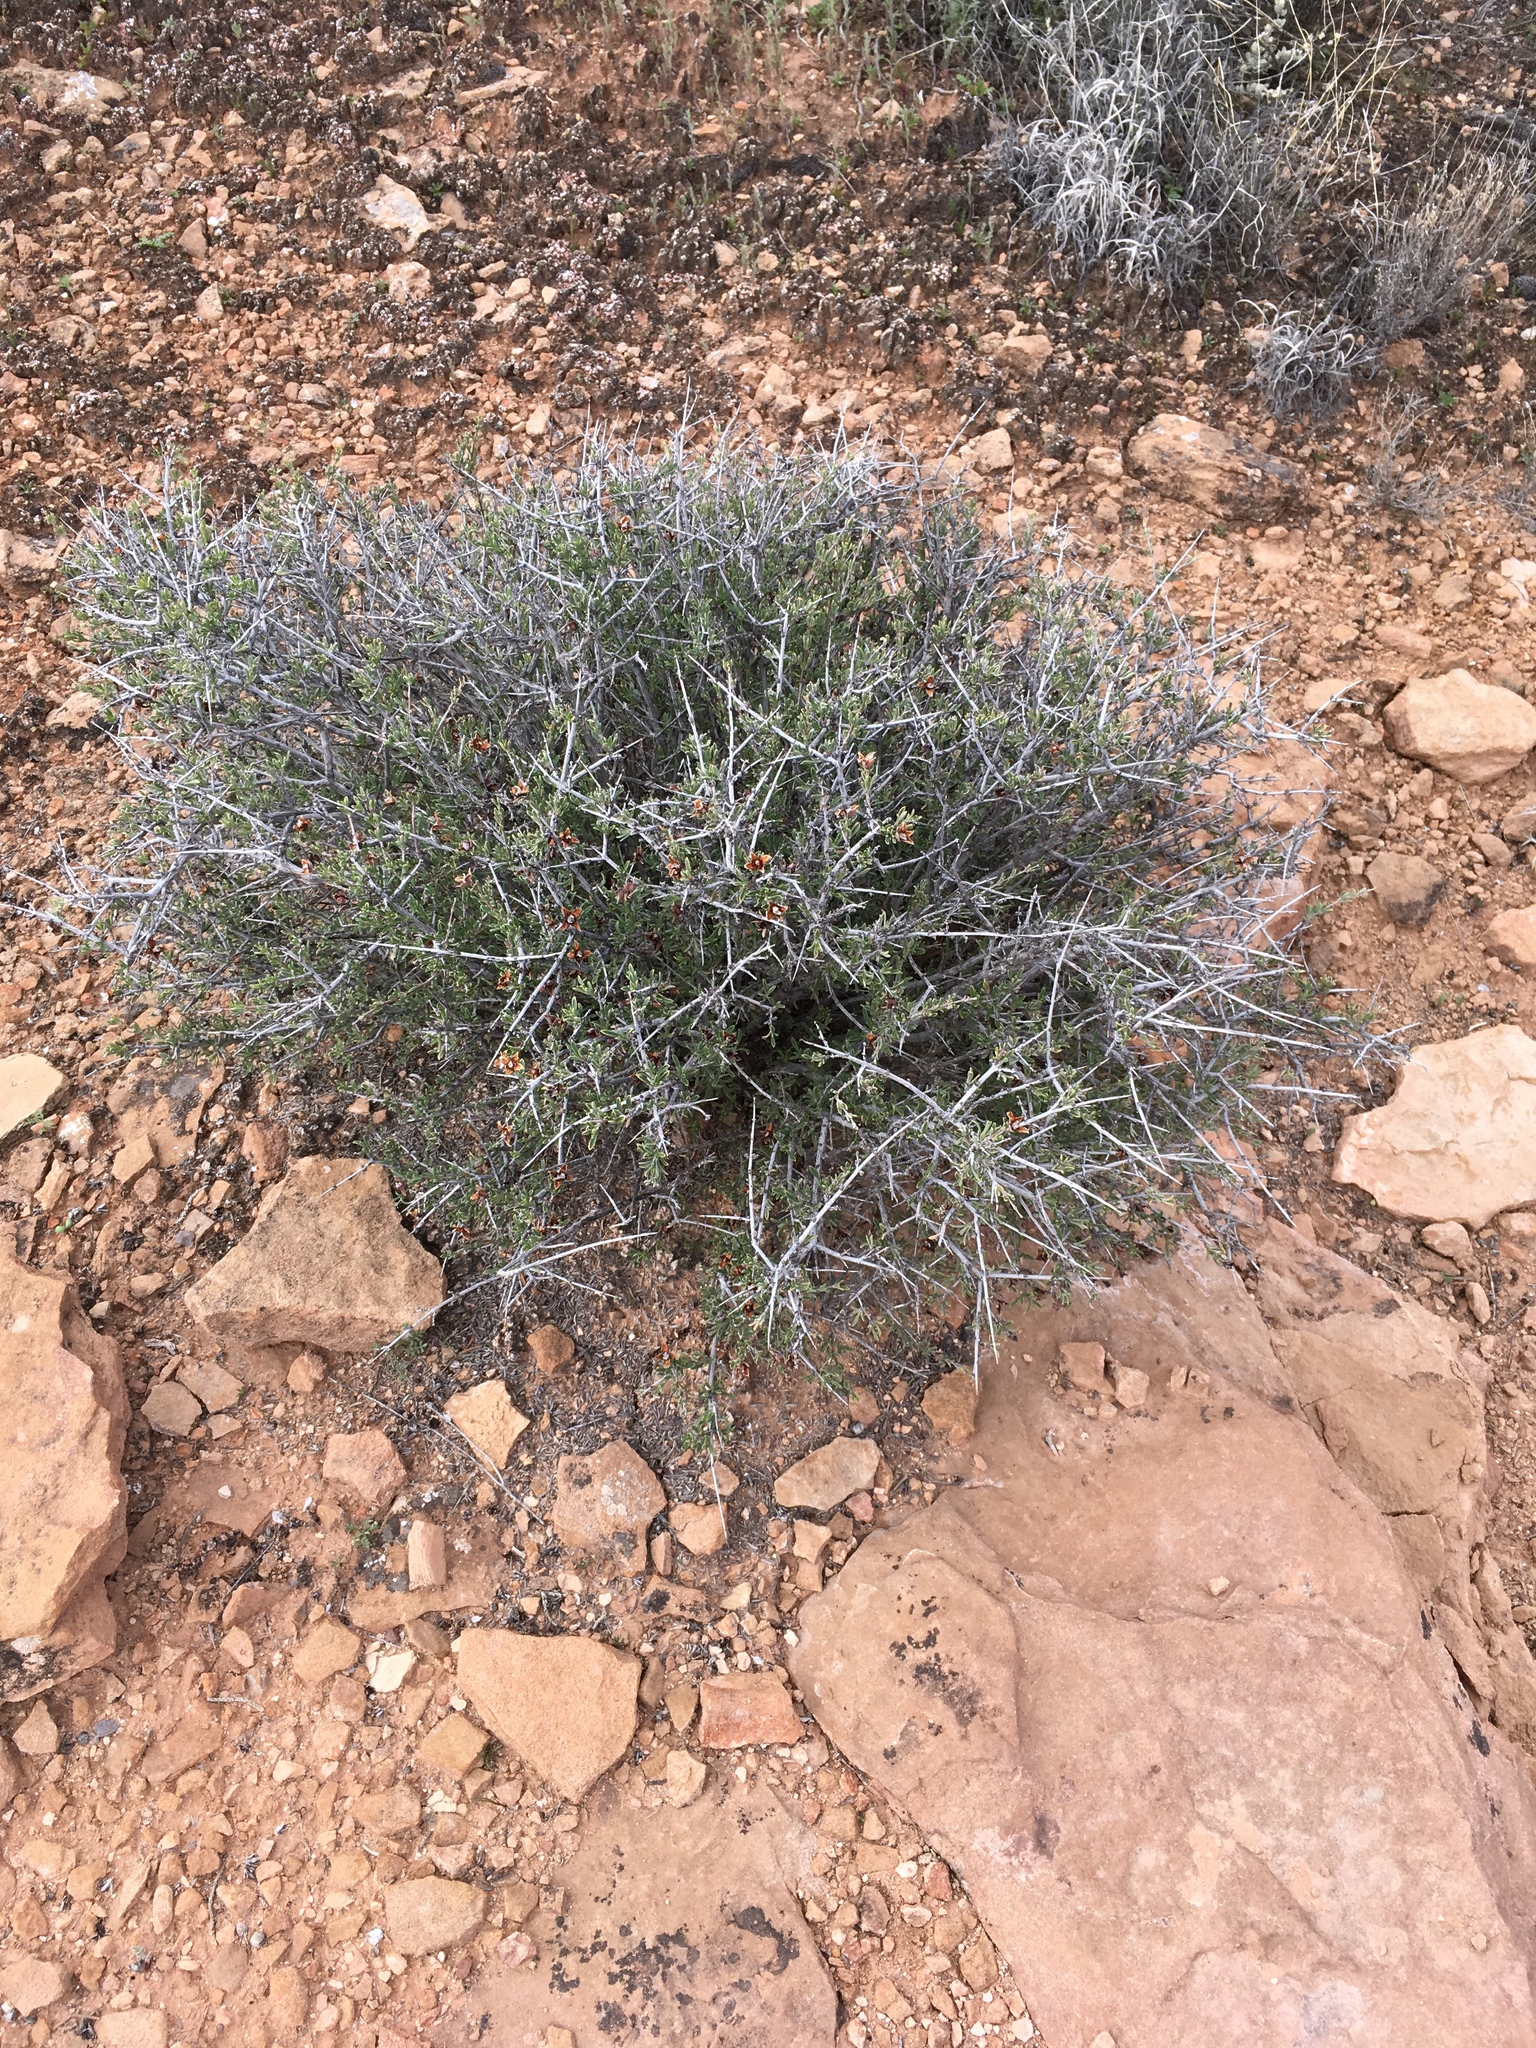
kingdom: Plantae
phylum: Tracheophyta
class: Magnoliopsida
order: Rosales
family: Rosaceae
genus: Coleogyne
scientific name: Coleogyne ramosissima
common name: Blackbrush
